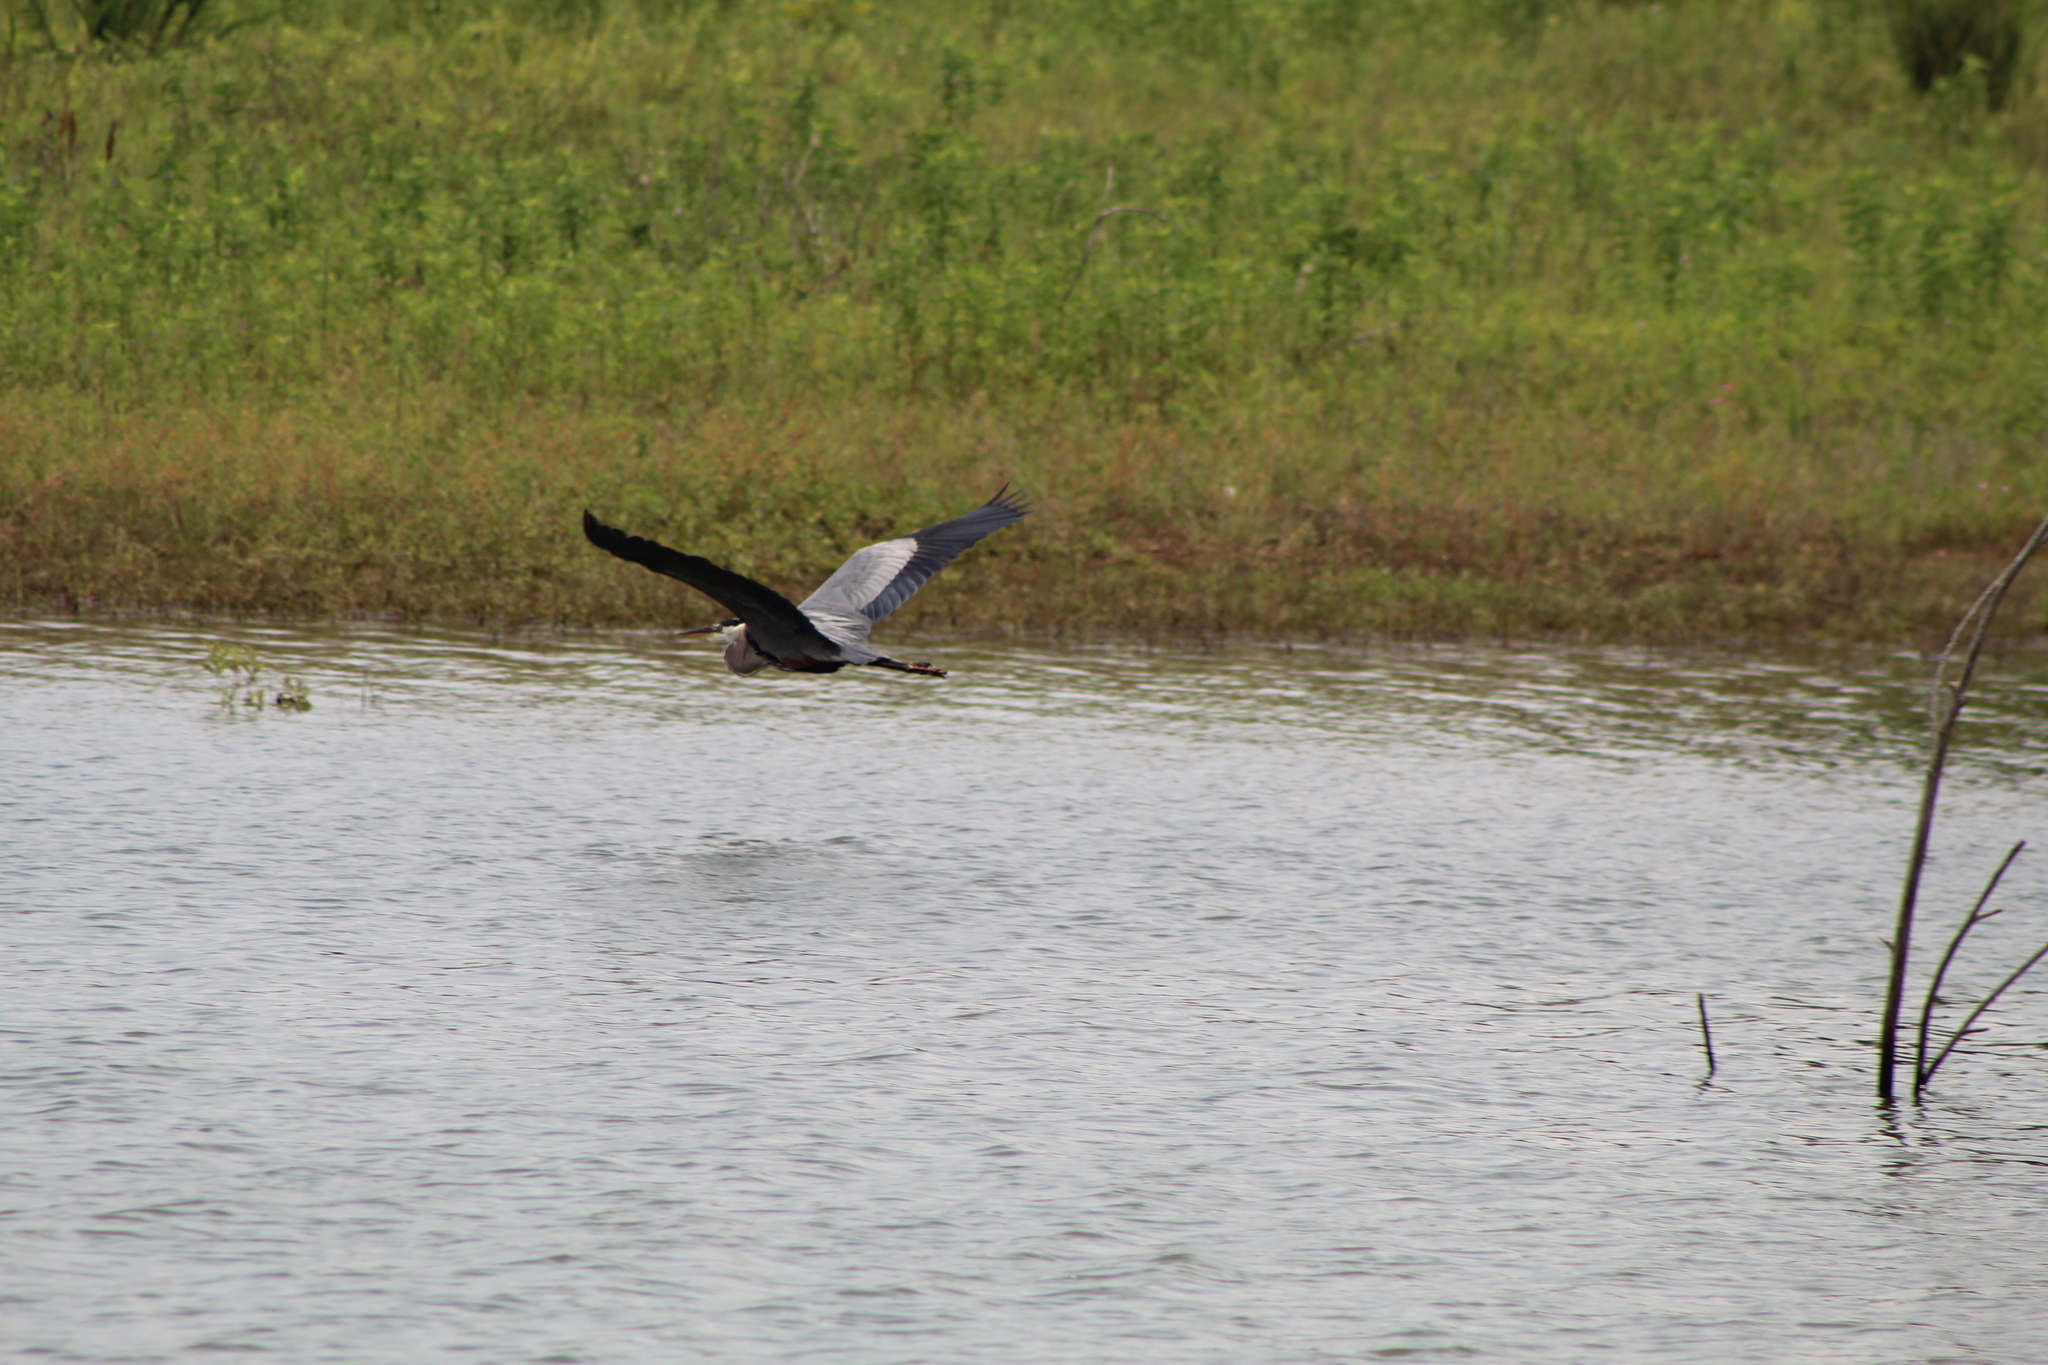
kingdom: Animalia
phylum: Chordata
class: Aves
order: Pelecaniformes
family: Ardeidae
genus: Ardea
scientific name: Ardea herodias
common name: Great blue heron
